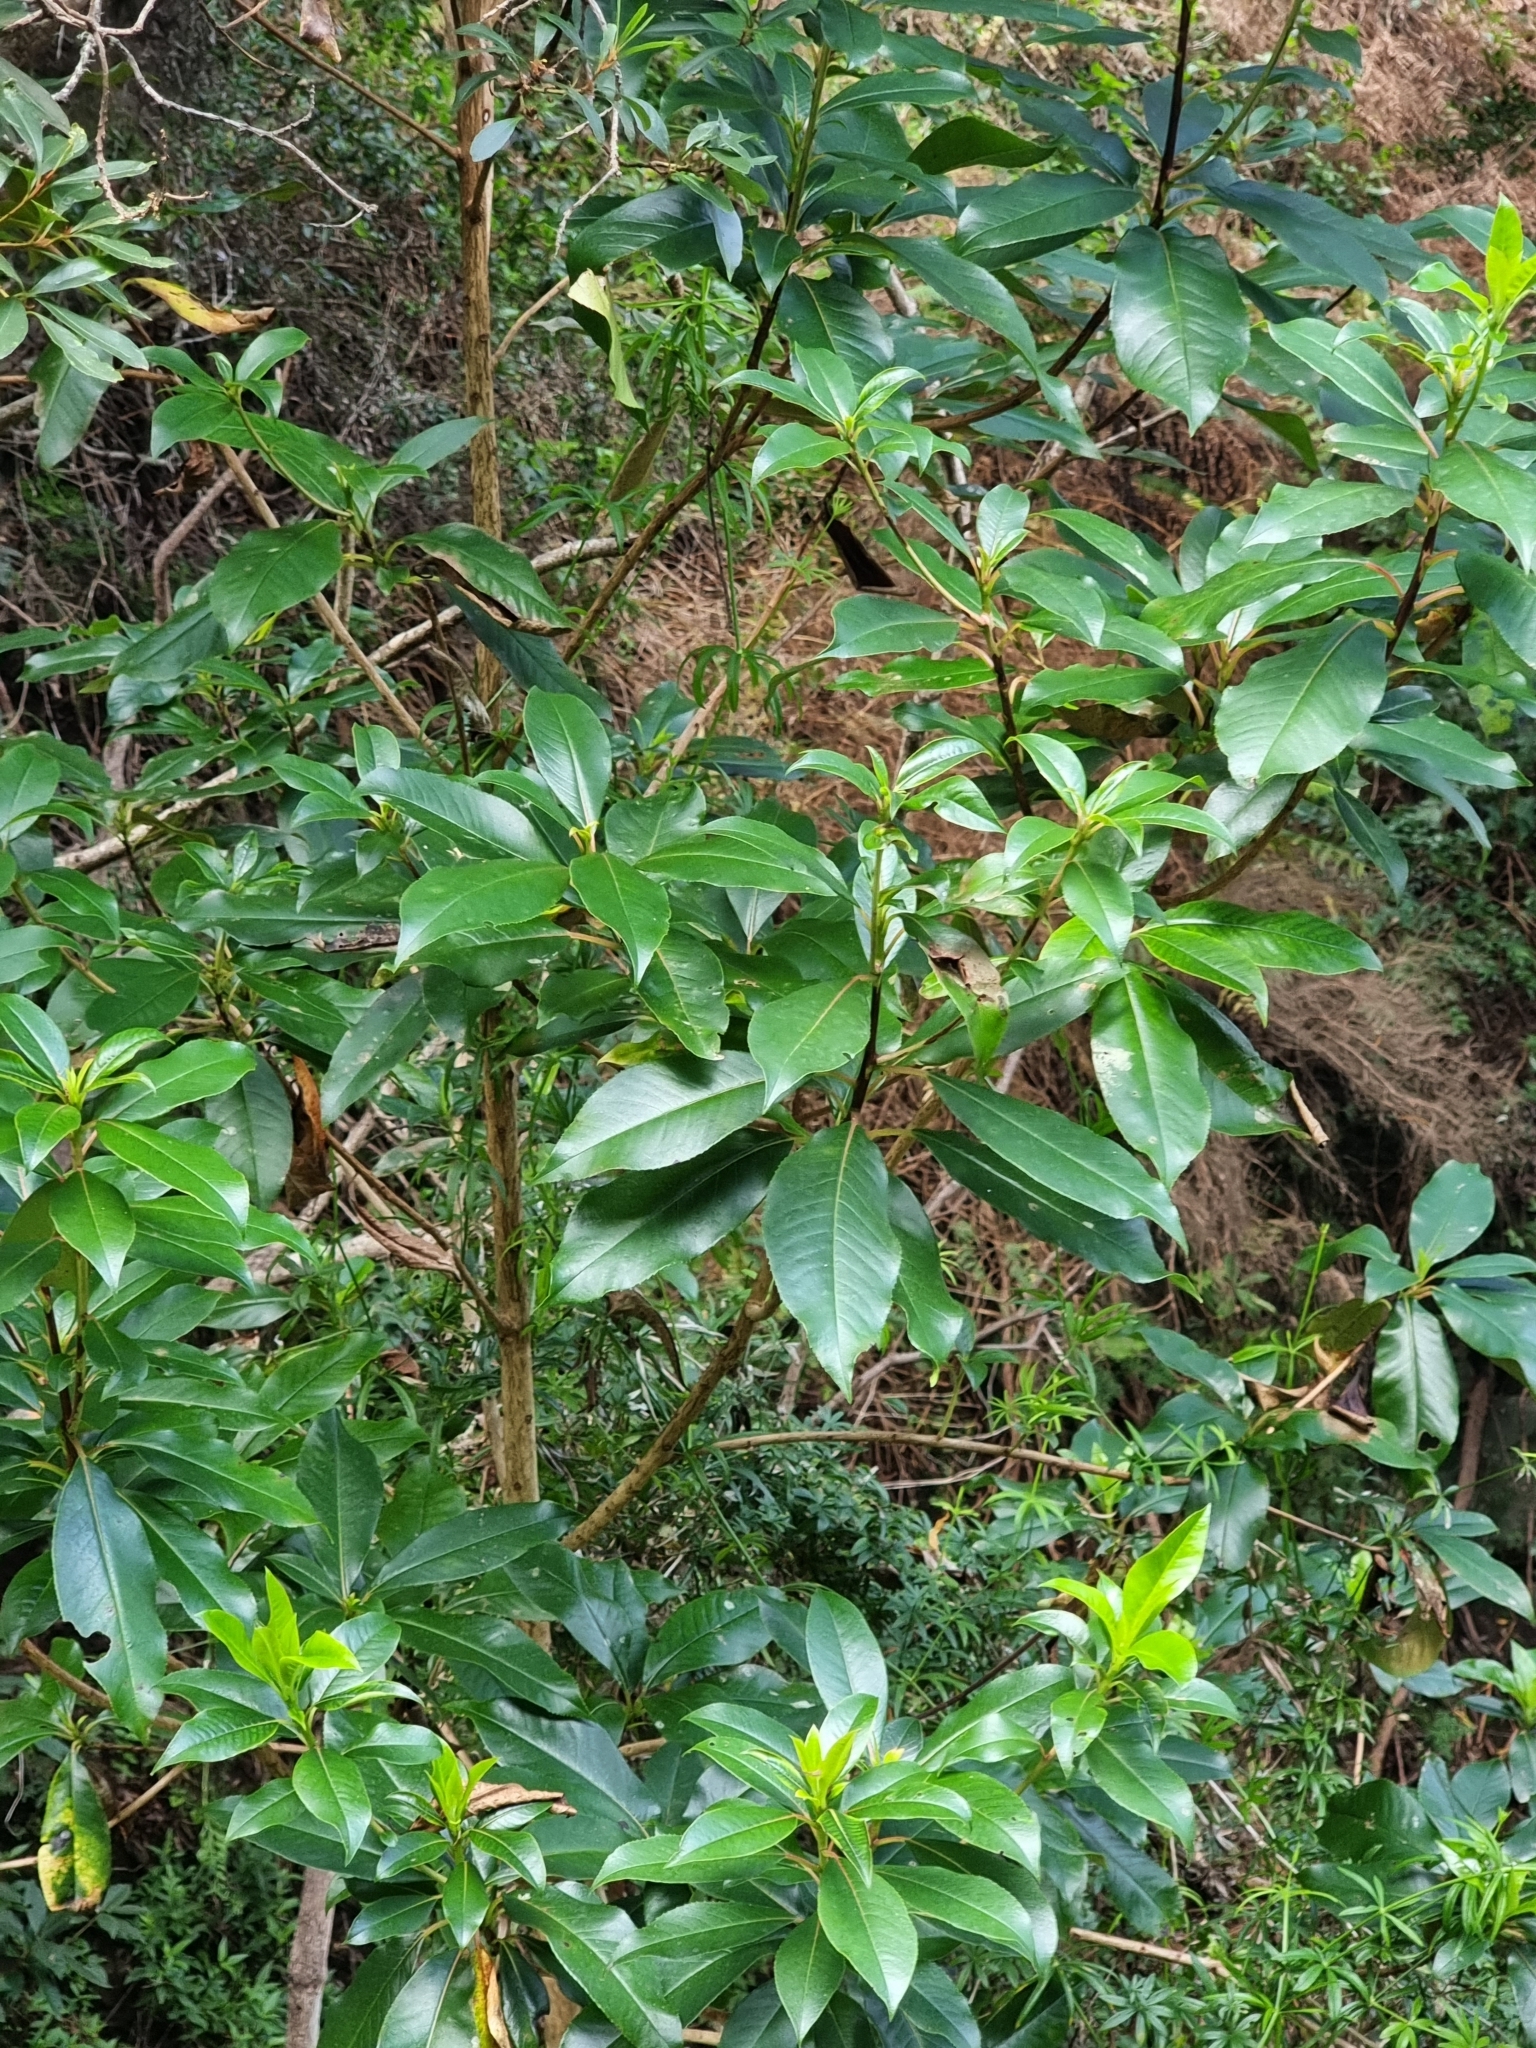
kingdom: Plantae
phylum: Tracheophyta
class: Magnoliopsida
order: Ericales
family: Clethraceae
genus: Clethra
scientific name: Clethra arborea
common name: Lily-of-the-valley-tree
